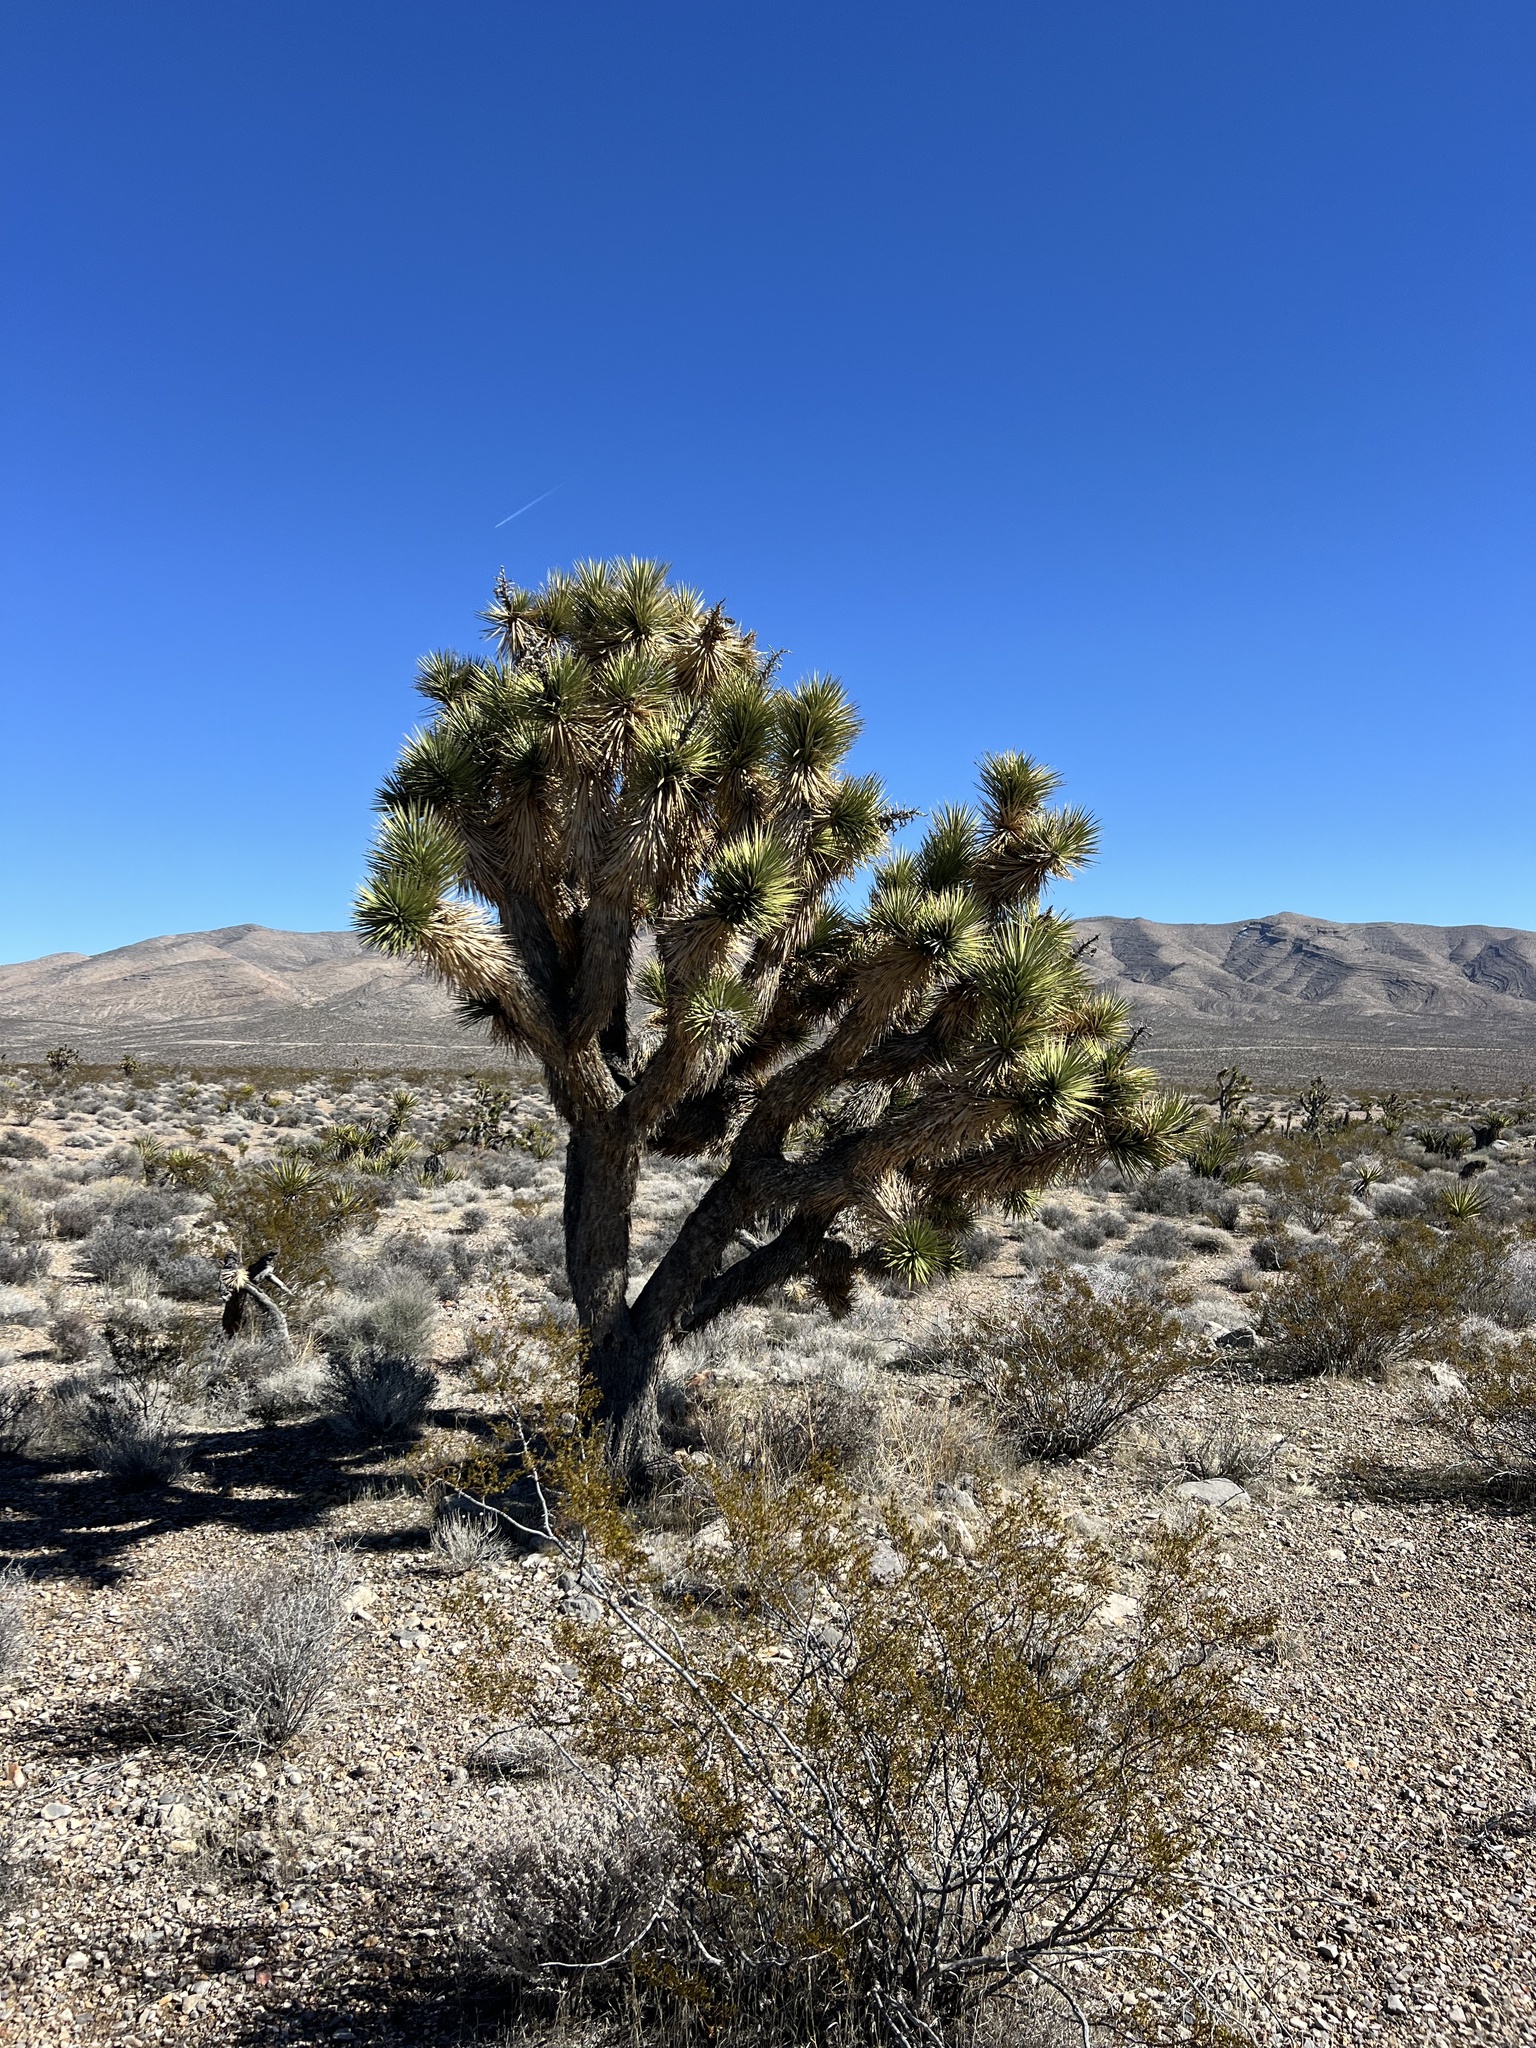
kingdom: Plantae
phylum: Tracheophyta
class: Liliopsida
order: Asparagales
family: Asparagaceae
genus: Yucca
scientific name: Yucca brevifolia
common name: Joshua tree
